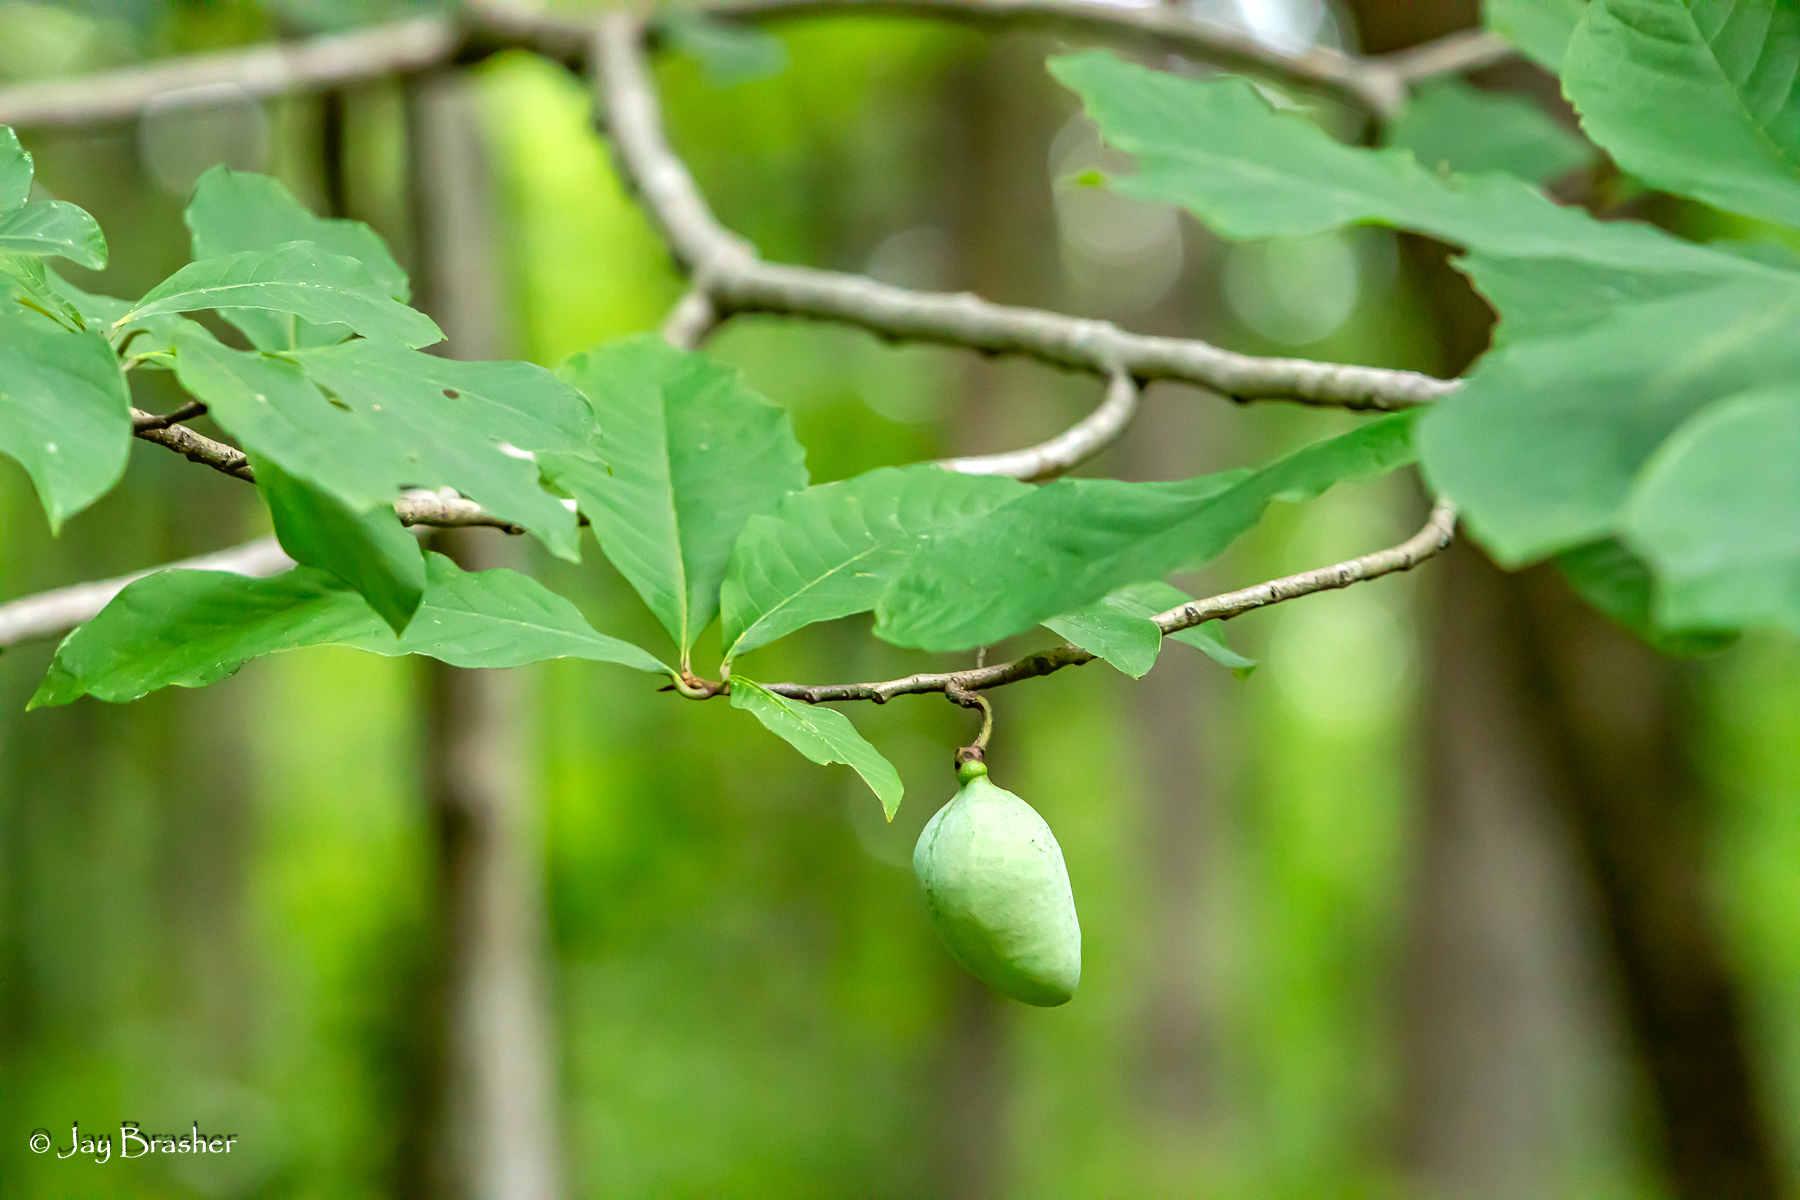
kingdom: Plantae
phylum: Tracheophyta
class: Magnoliopsida
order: Magnoliales
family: Annonaceae
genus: Asimina
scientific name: Asimina parviflora
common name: Dwarf pawpaw
